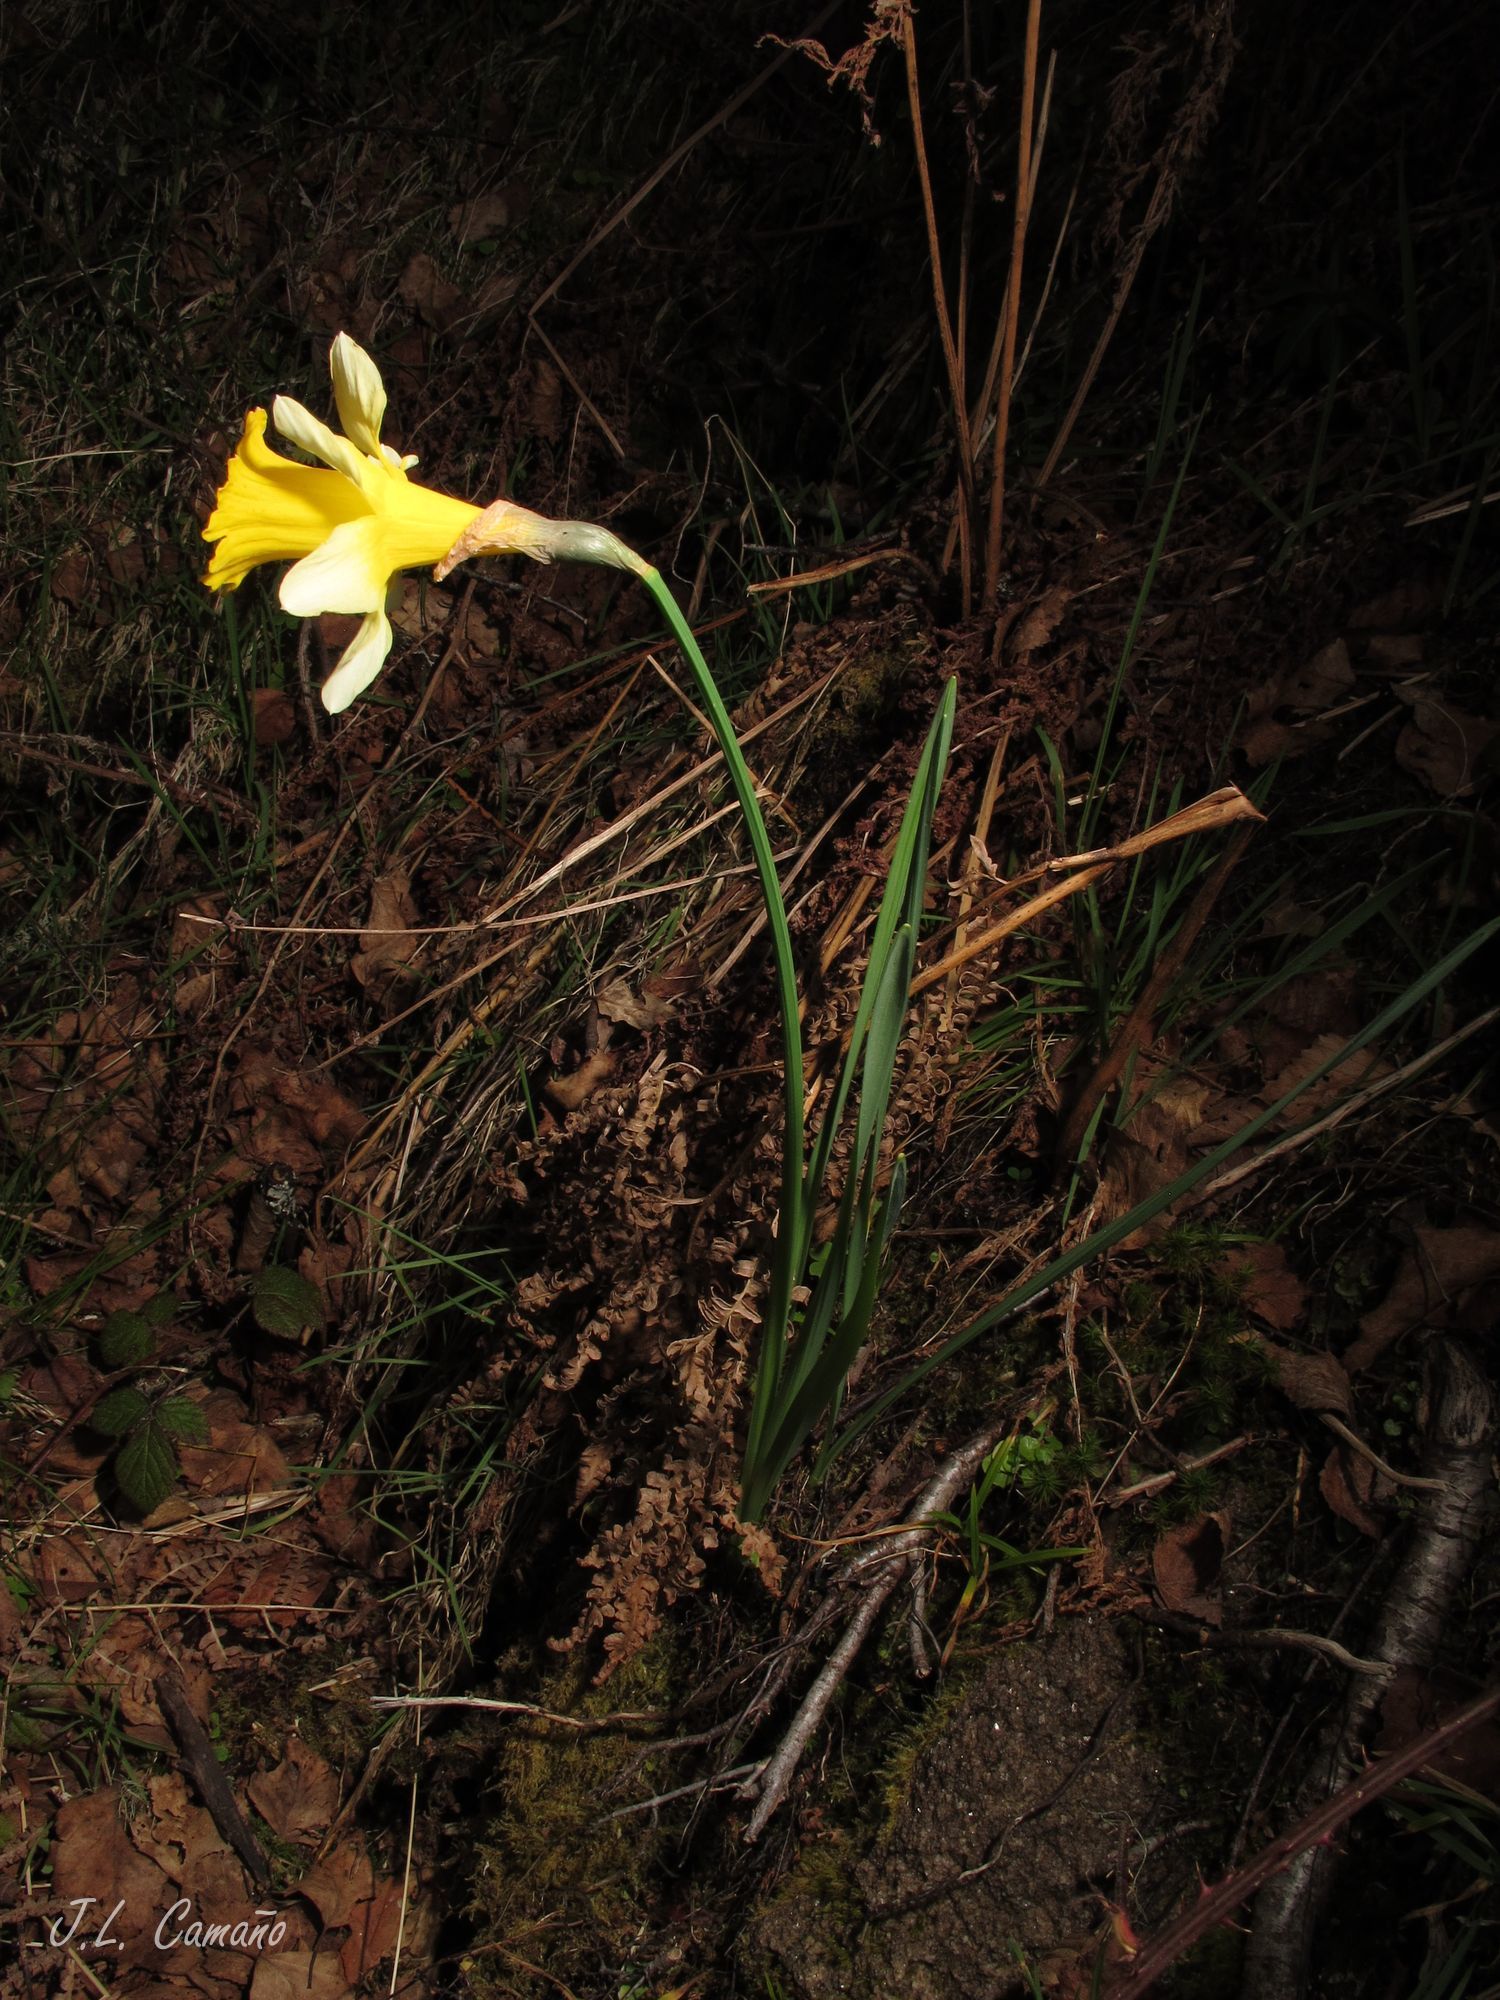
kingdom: Plantae
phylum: Tracheophyta
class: Liliopsida
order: Asparagales
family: Amaryllidaceae
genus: Narcissus
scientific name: Narcissus pseudonarcissus
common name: Daffodil
